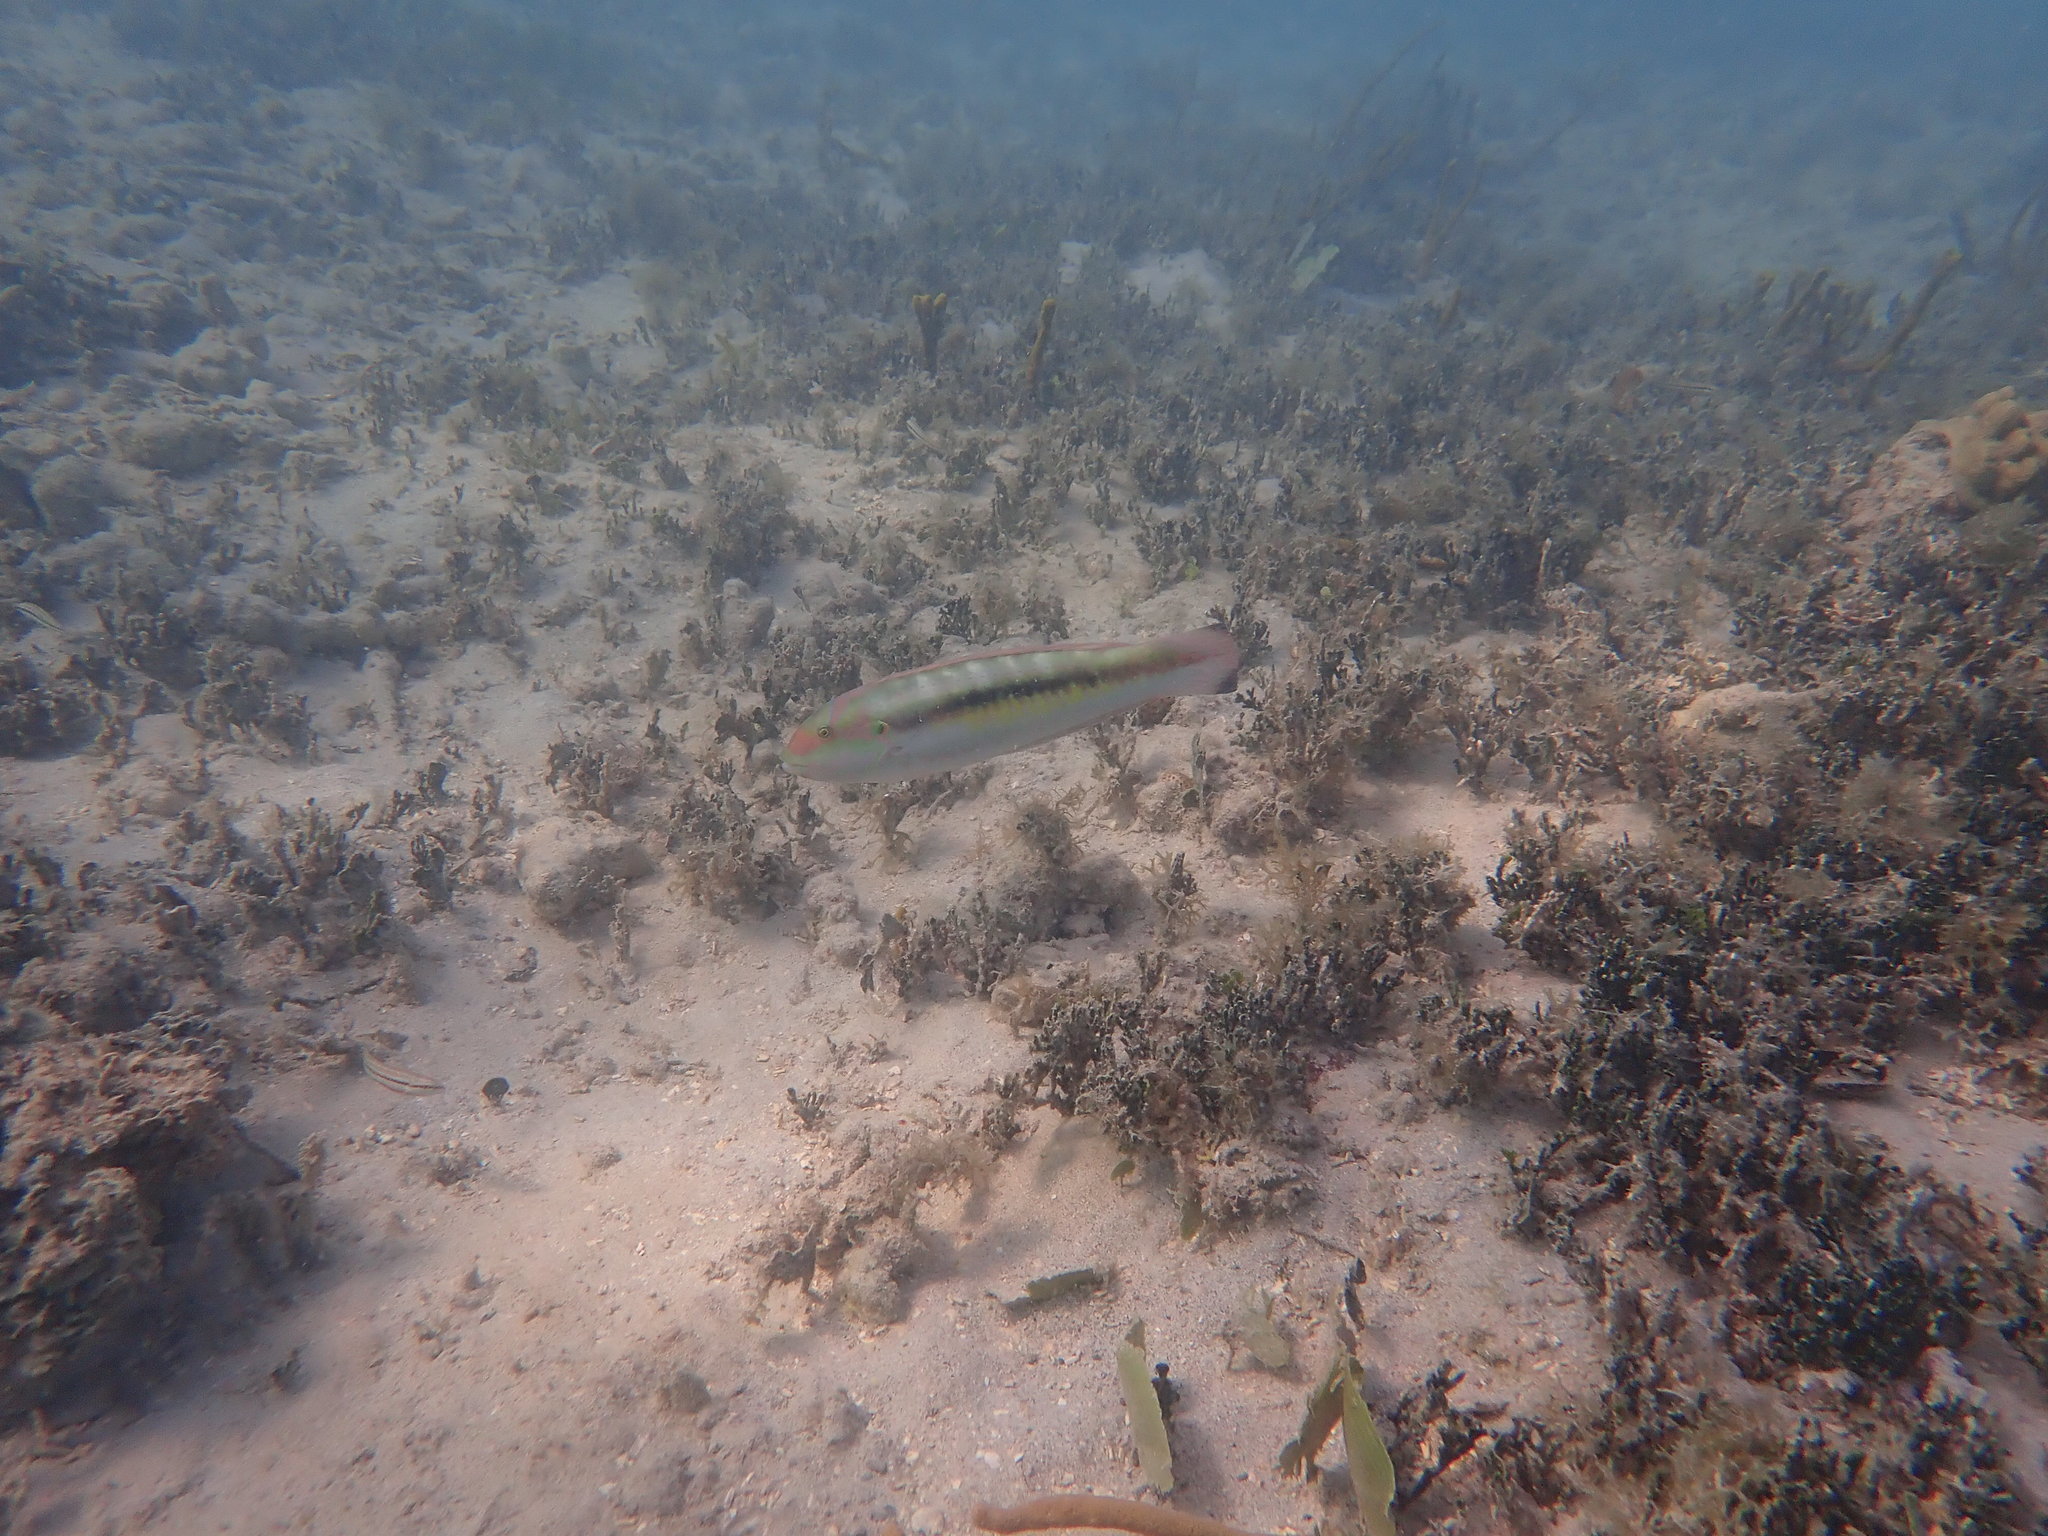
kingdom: Animalia
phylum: Chordata
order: Perciformes
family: Labridae
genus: Halichoeres
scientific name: Halichoeres bivittatus
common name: Slippery dick
